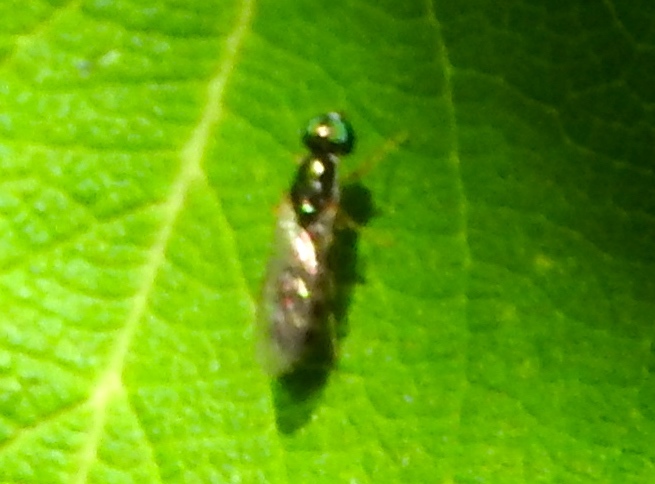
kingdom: Animalia
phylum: Arthropoda
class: Insecta
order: Diptera
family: Stratiomyidae
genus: Sargus
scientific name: Sargus
